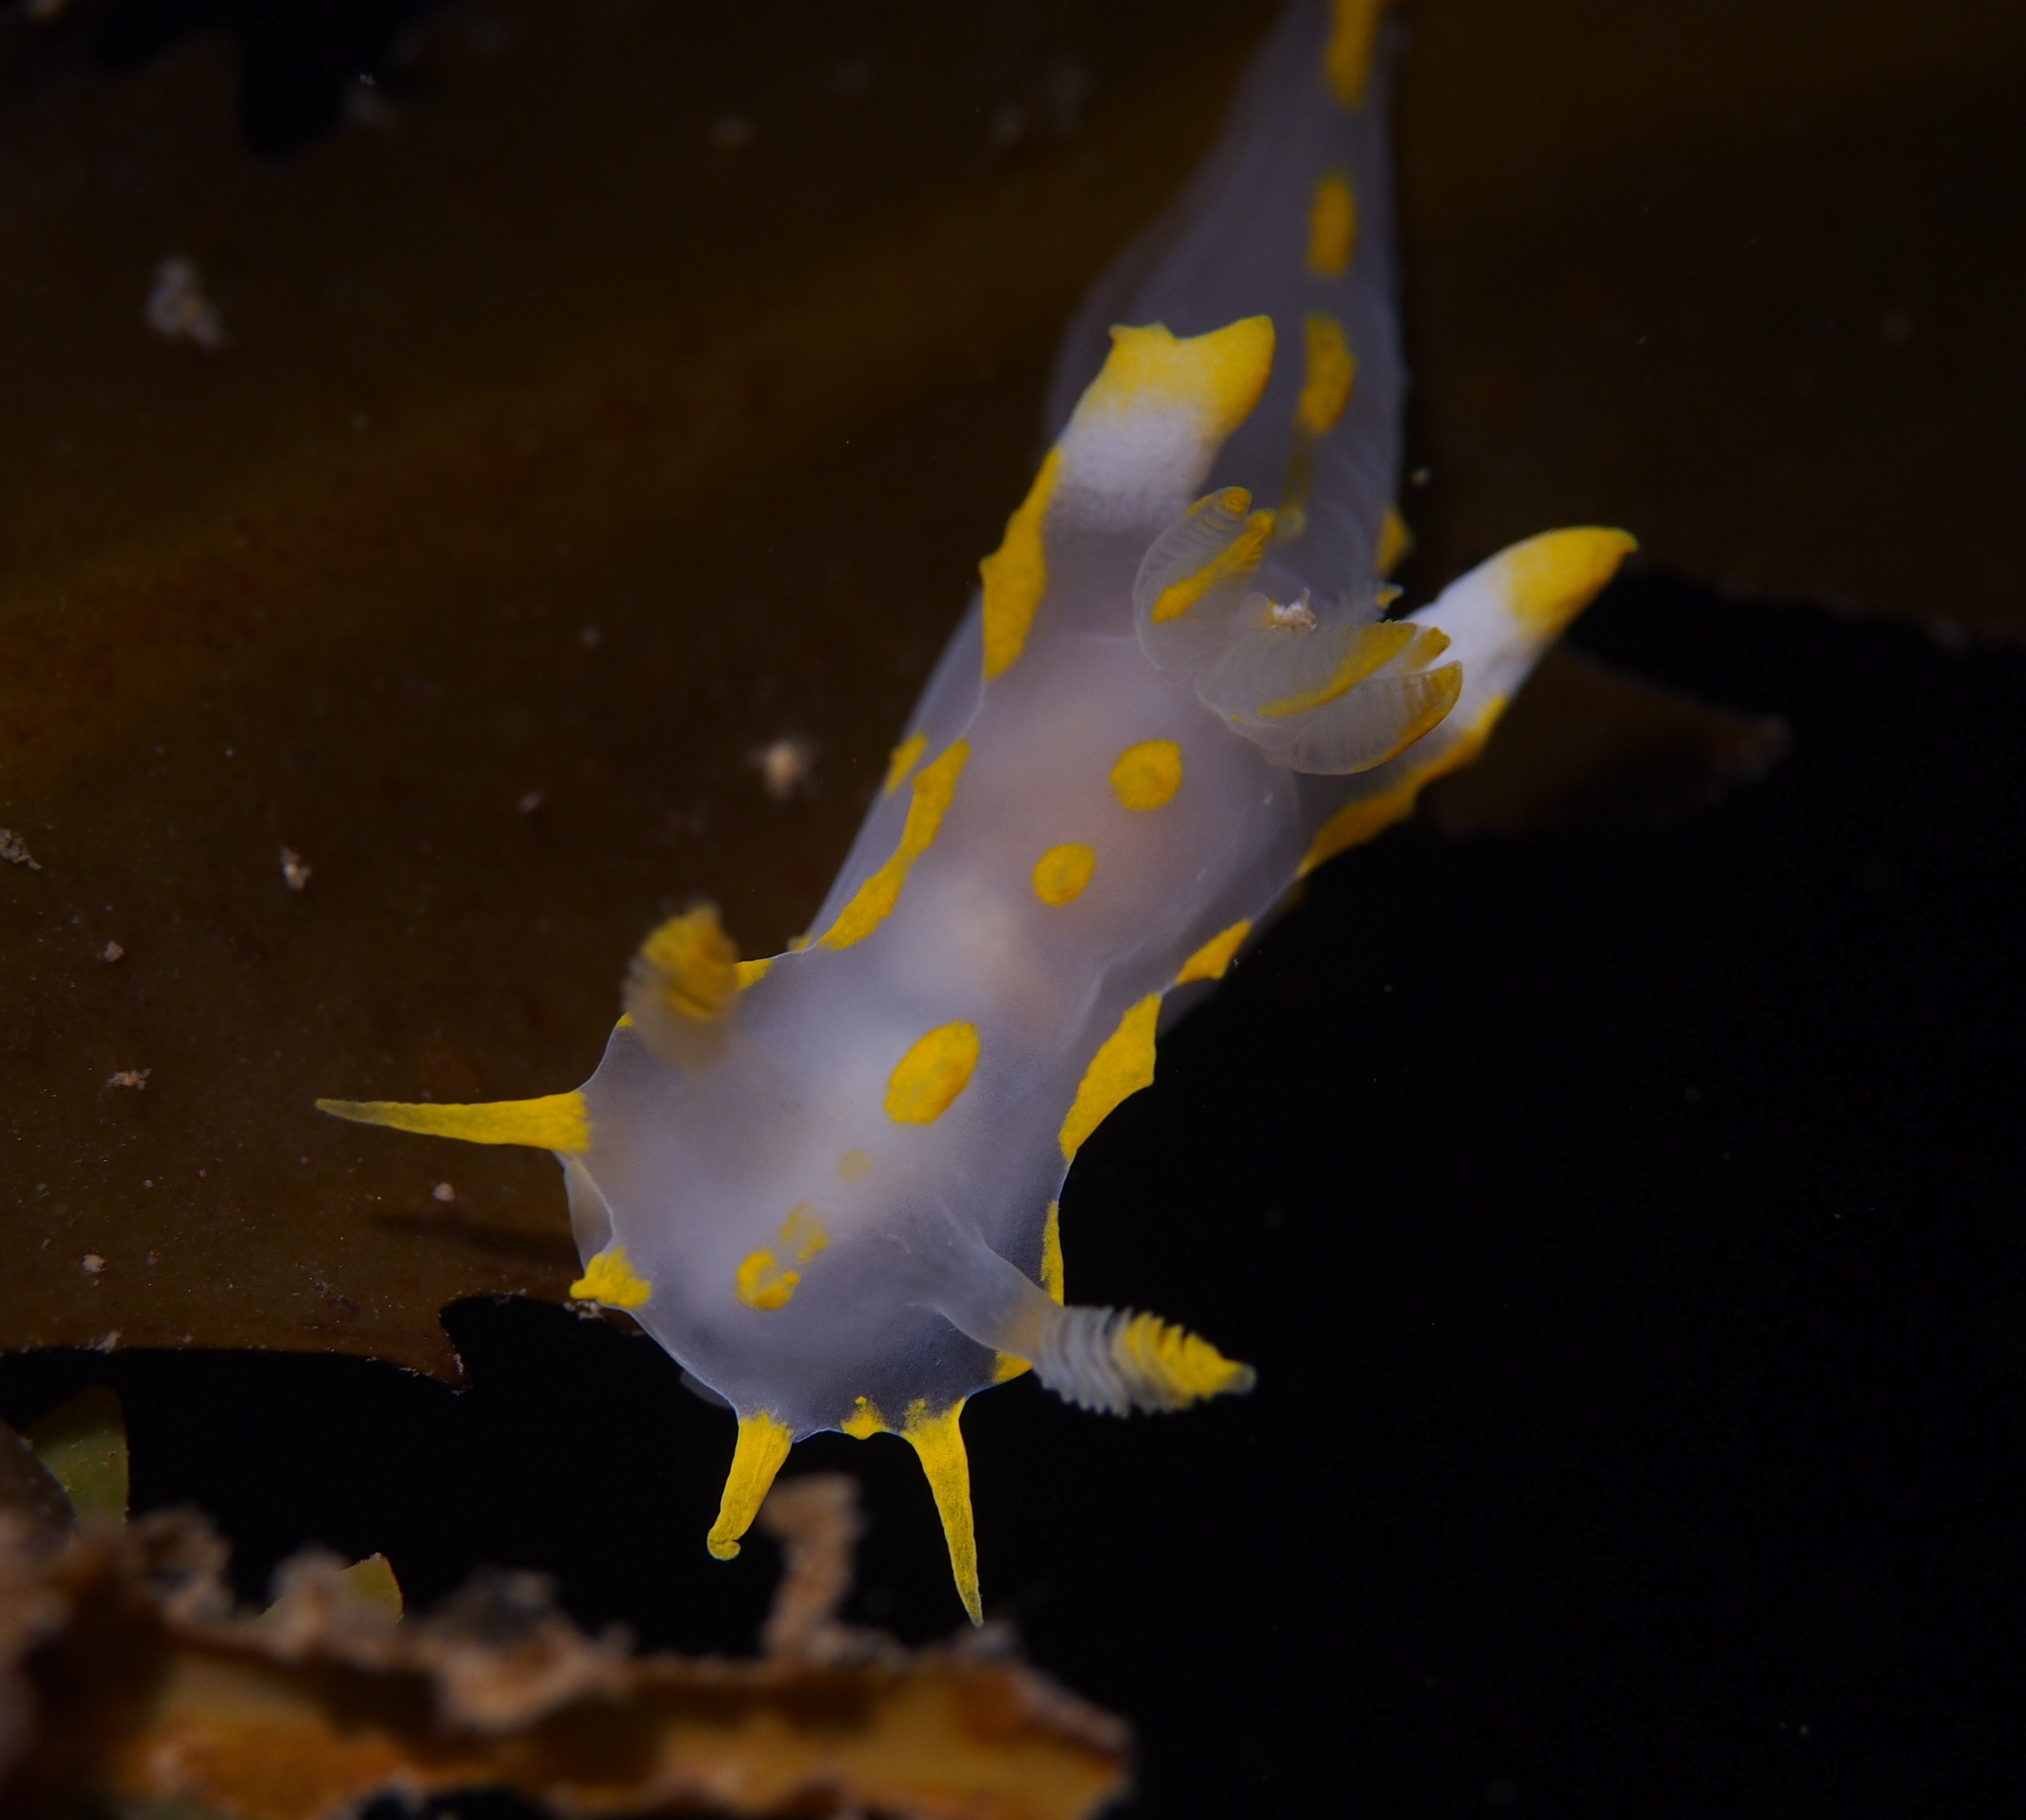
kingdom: Animalia
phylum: Mollusca
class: Gastropoda
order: Nudibranchia
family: Polyceridae
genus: Polycera
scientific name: Polycera quadrilineata
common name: Four-striped polycera
